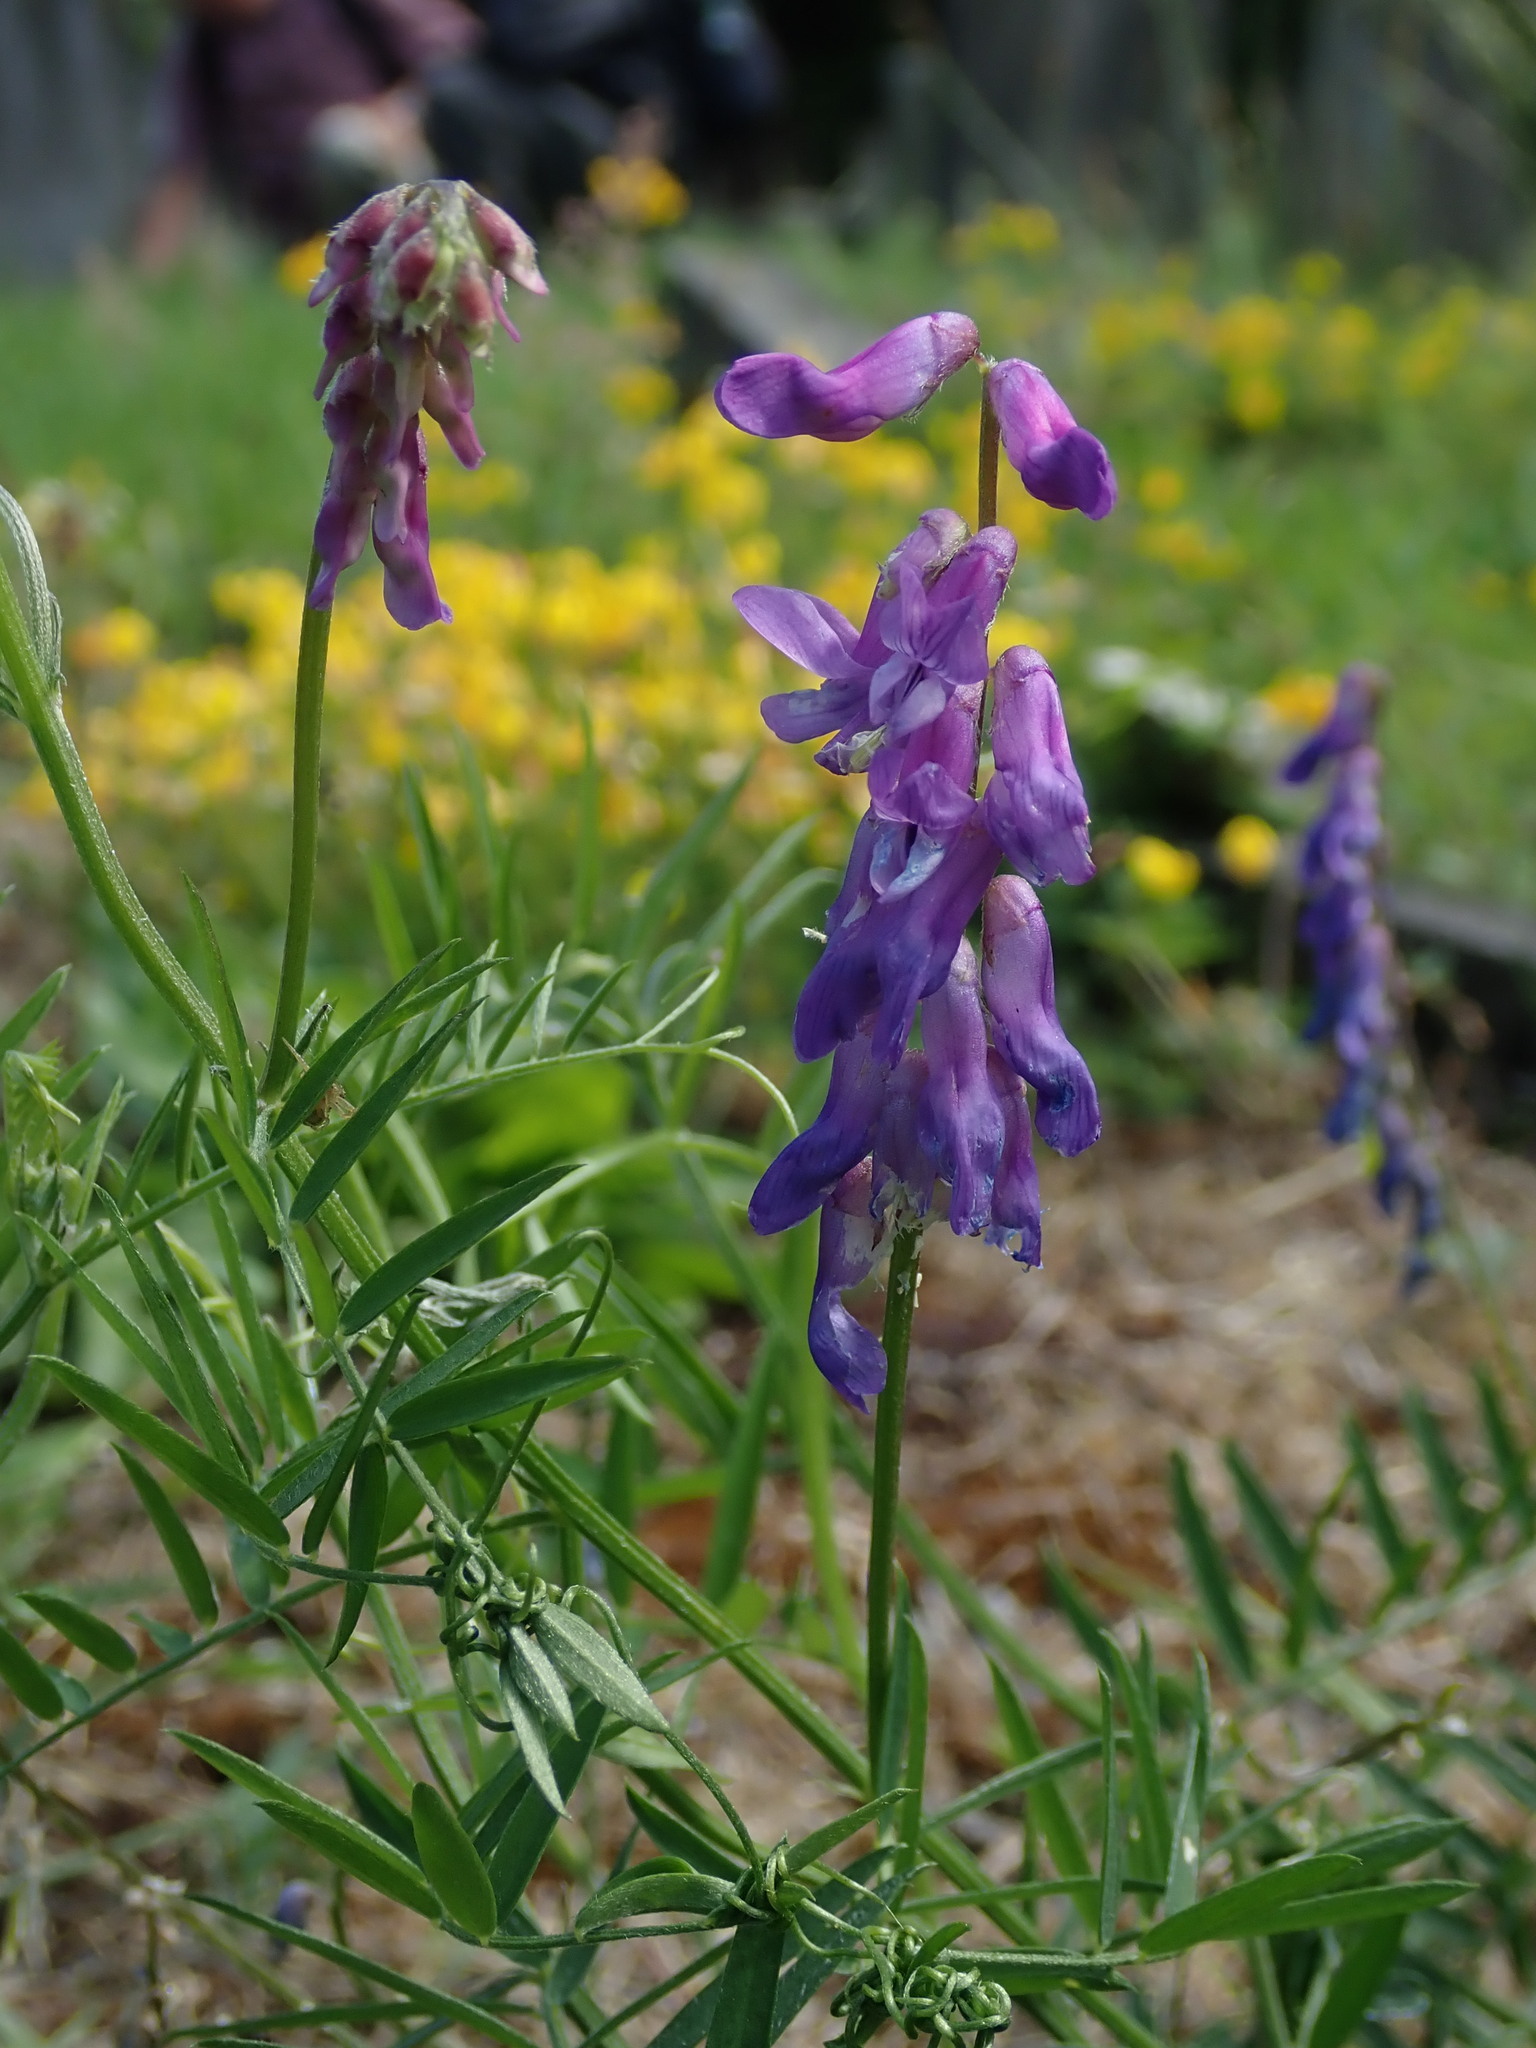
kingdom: Plantae
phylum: Tracheophyta
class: Magnoliopsida
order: Fabales
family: Fabaceae
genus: Vicia
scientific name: Vicia cracca
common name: Bird vetch
